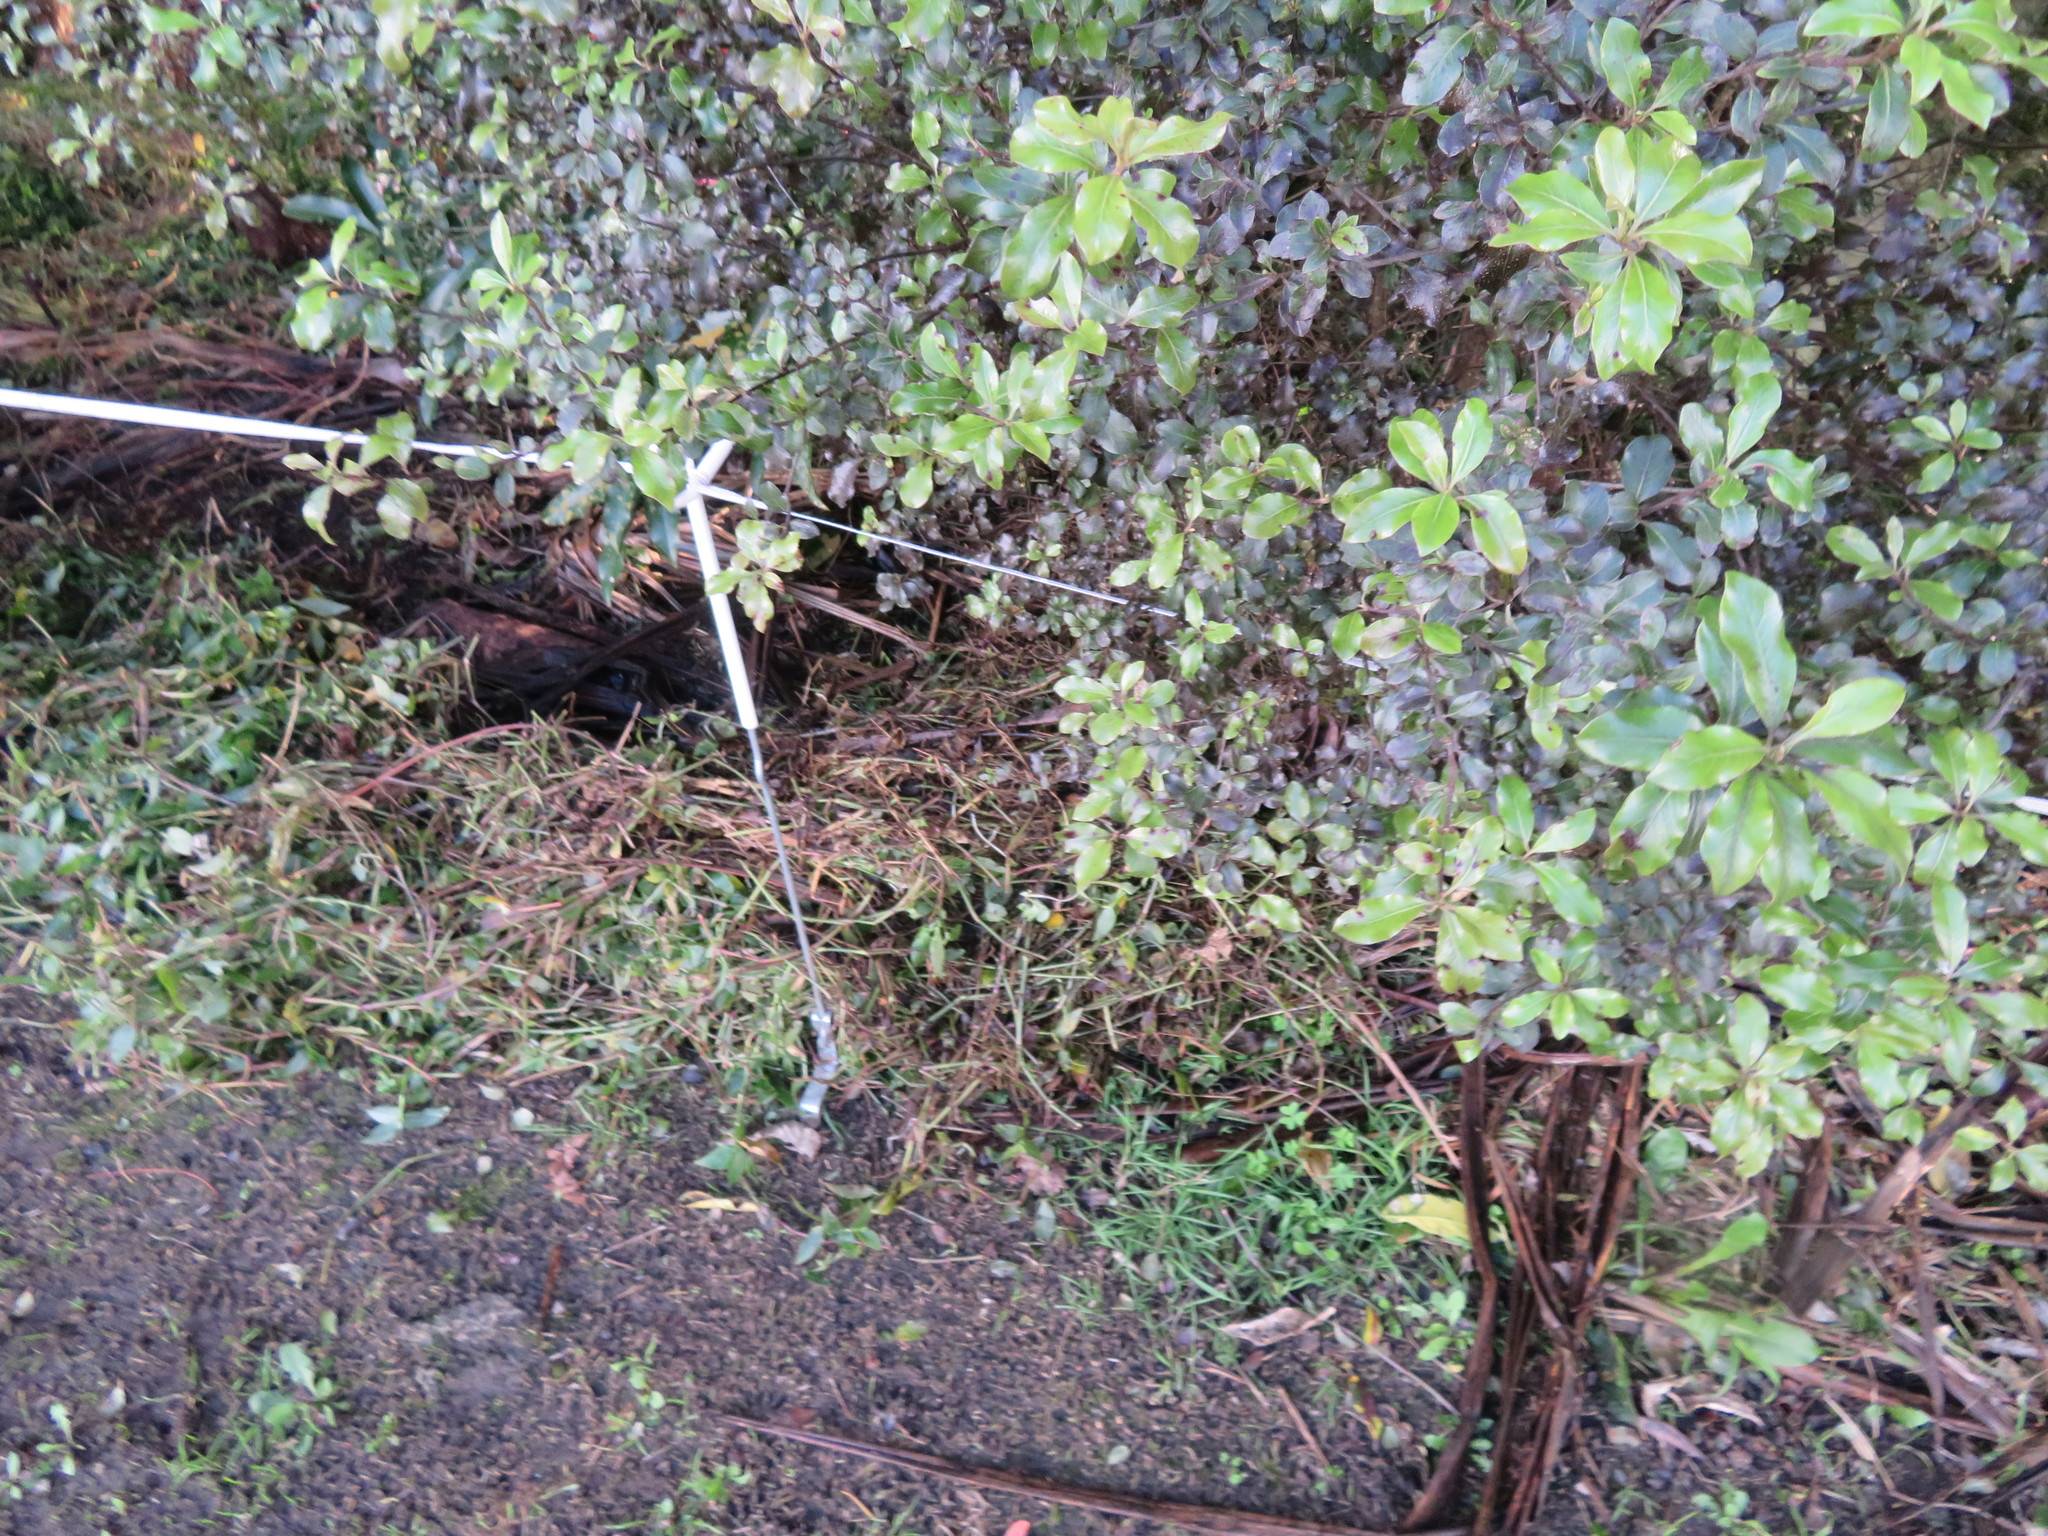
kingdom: Plantae
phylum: Tracheophyta
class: Liliopsida
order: Commelinales
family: Commelinaceae
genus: Tradescantia
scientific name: Tradescantia fluminensis
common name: Wandering-jew
